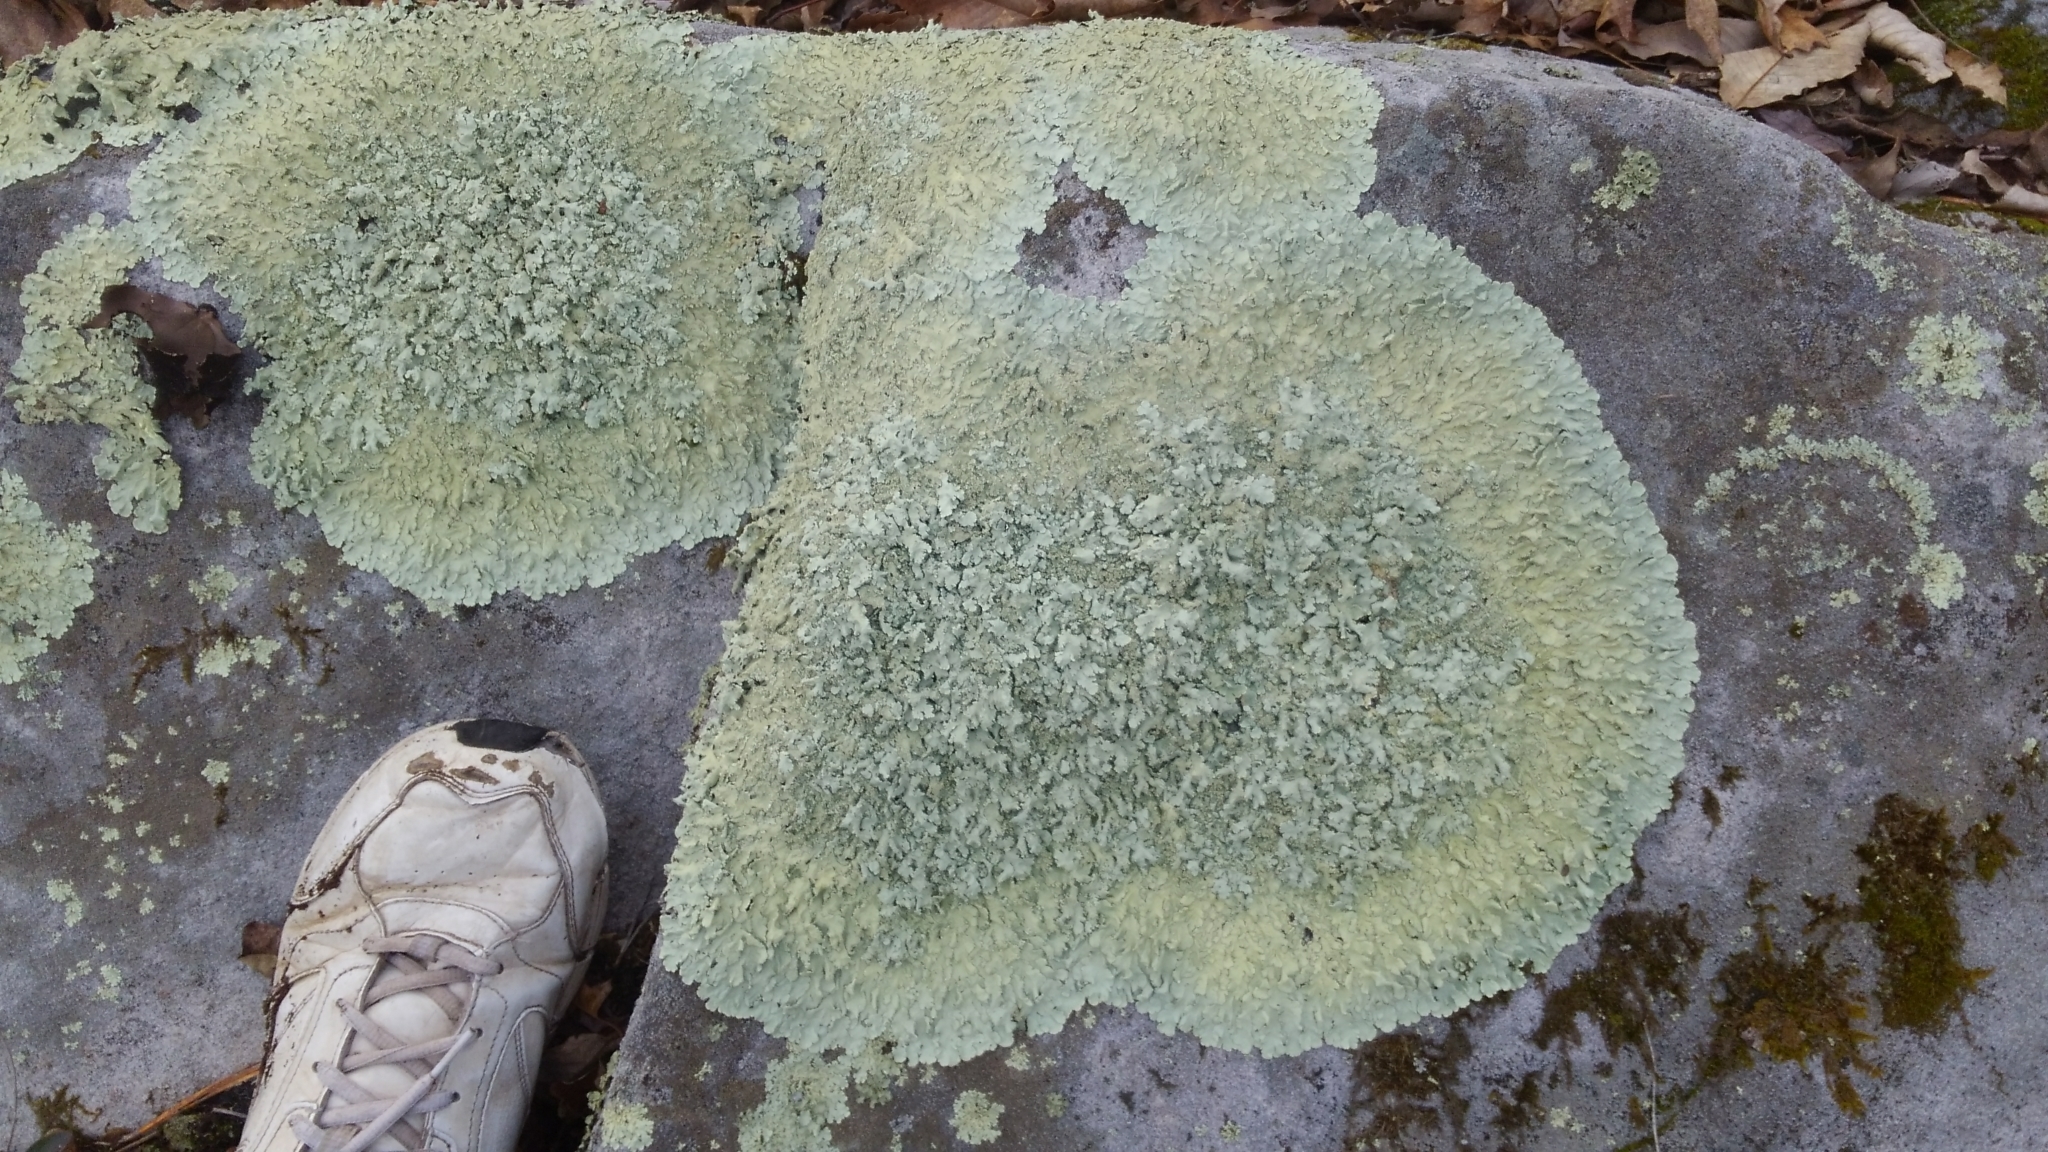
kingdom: Fungi
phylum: Ascomycota
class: Lecanoromycetes
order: Lecanorales
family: Parmeliaceae
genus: Flavoparmelia
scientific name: Flavoparmelia baltimorensis
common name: Rock greenshield
